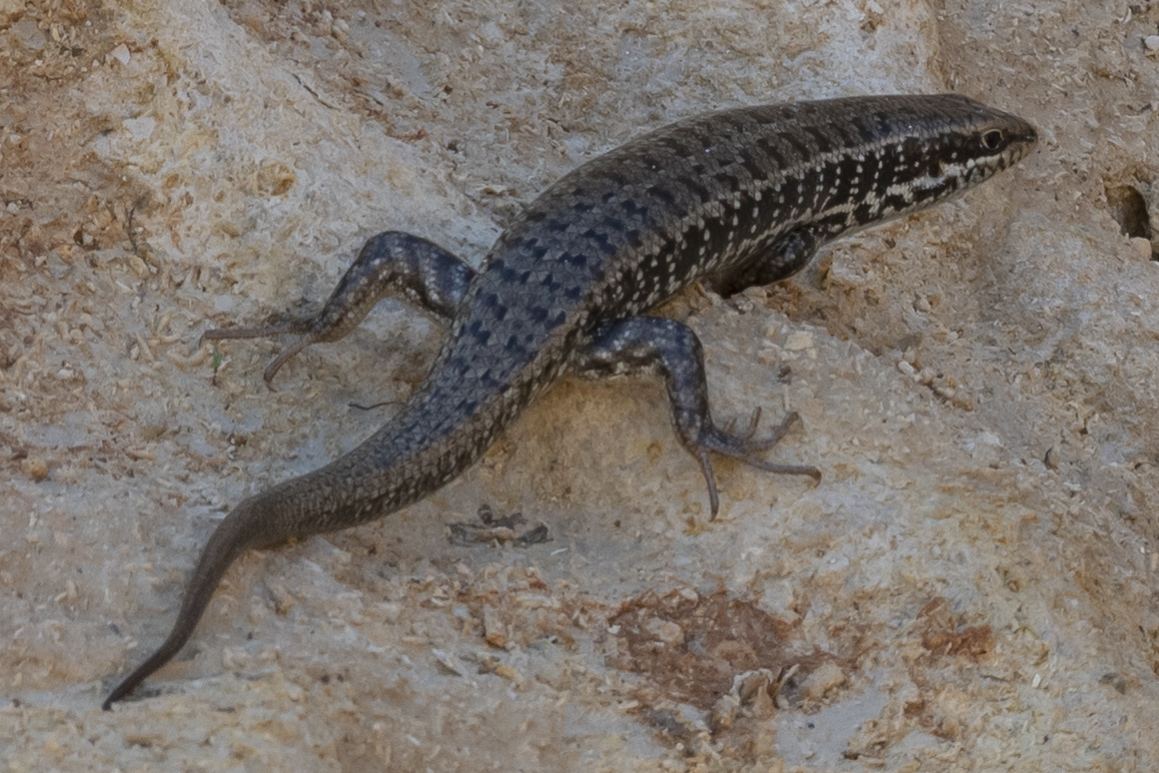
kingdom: Animalia
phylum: Chordata
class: Squamata
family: Scincidae
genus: Heremites
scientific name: Heremites auratus
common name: Golden grass mabuya
